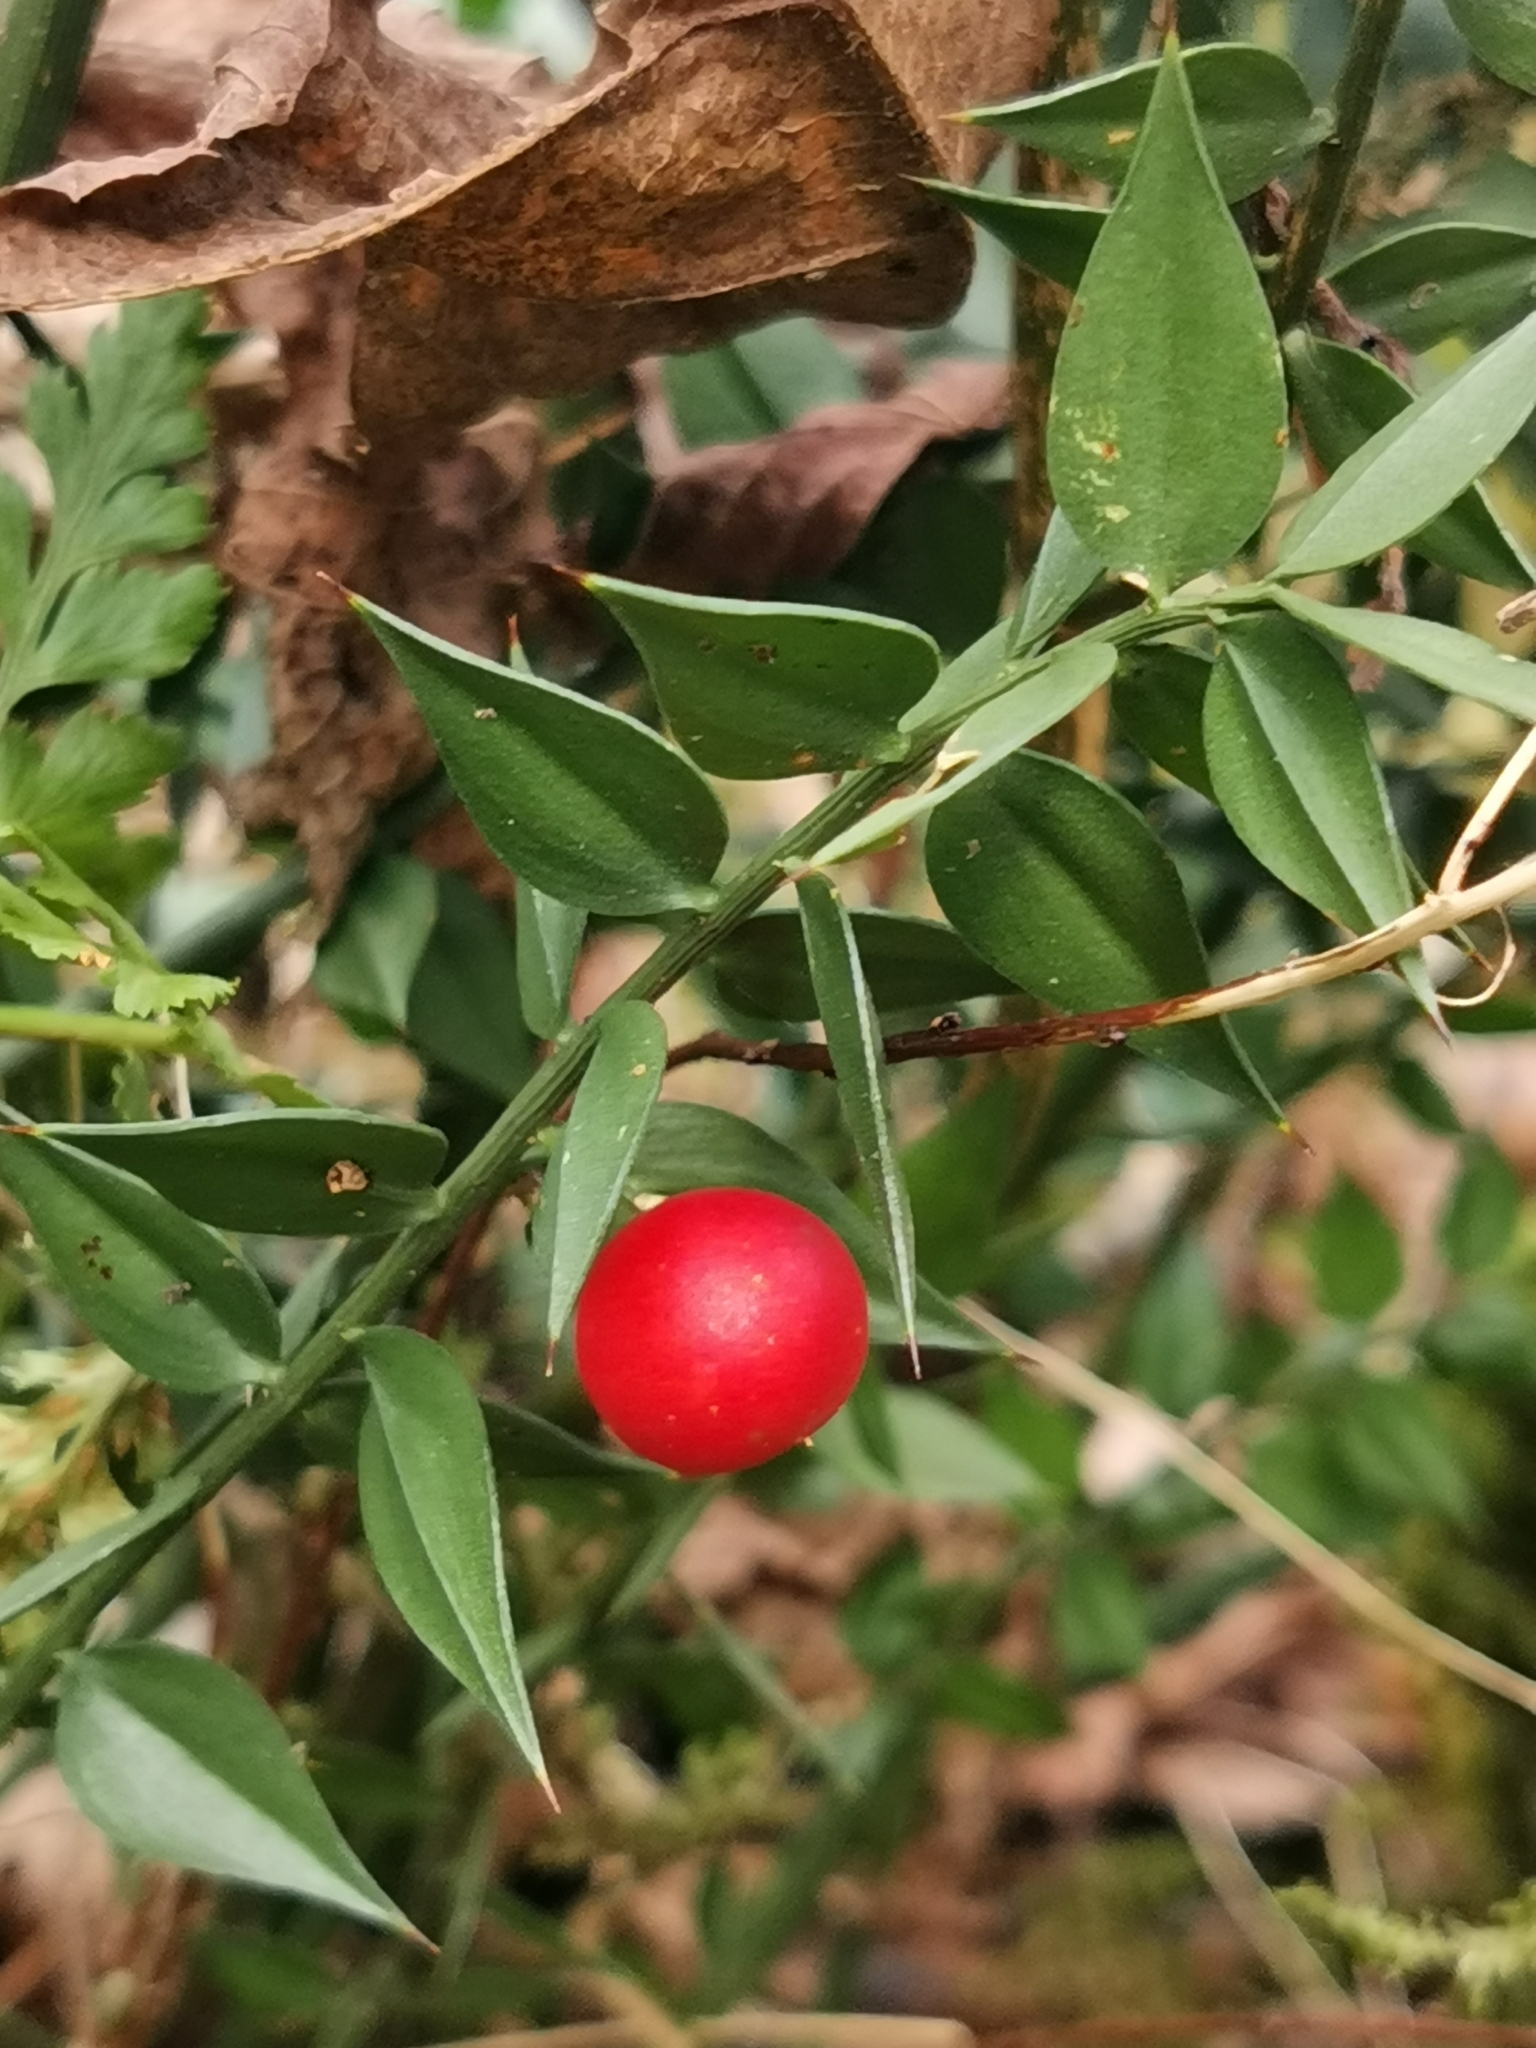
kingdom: Plantae
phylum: Tracheophyta
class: Liliopsida
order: Asparagales
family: Asparagaceae
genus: Ruscus
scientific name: Ruscus aculeatus
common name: Butcher's-broom
